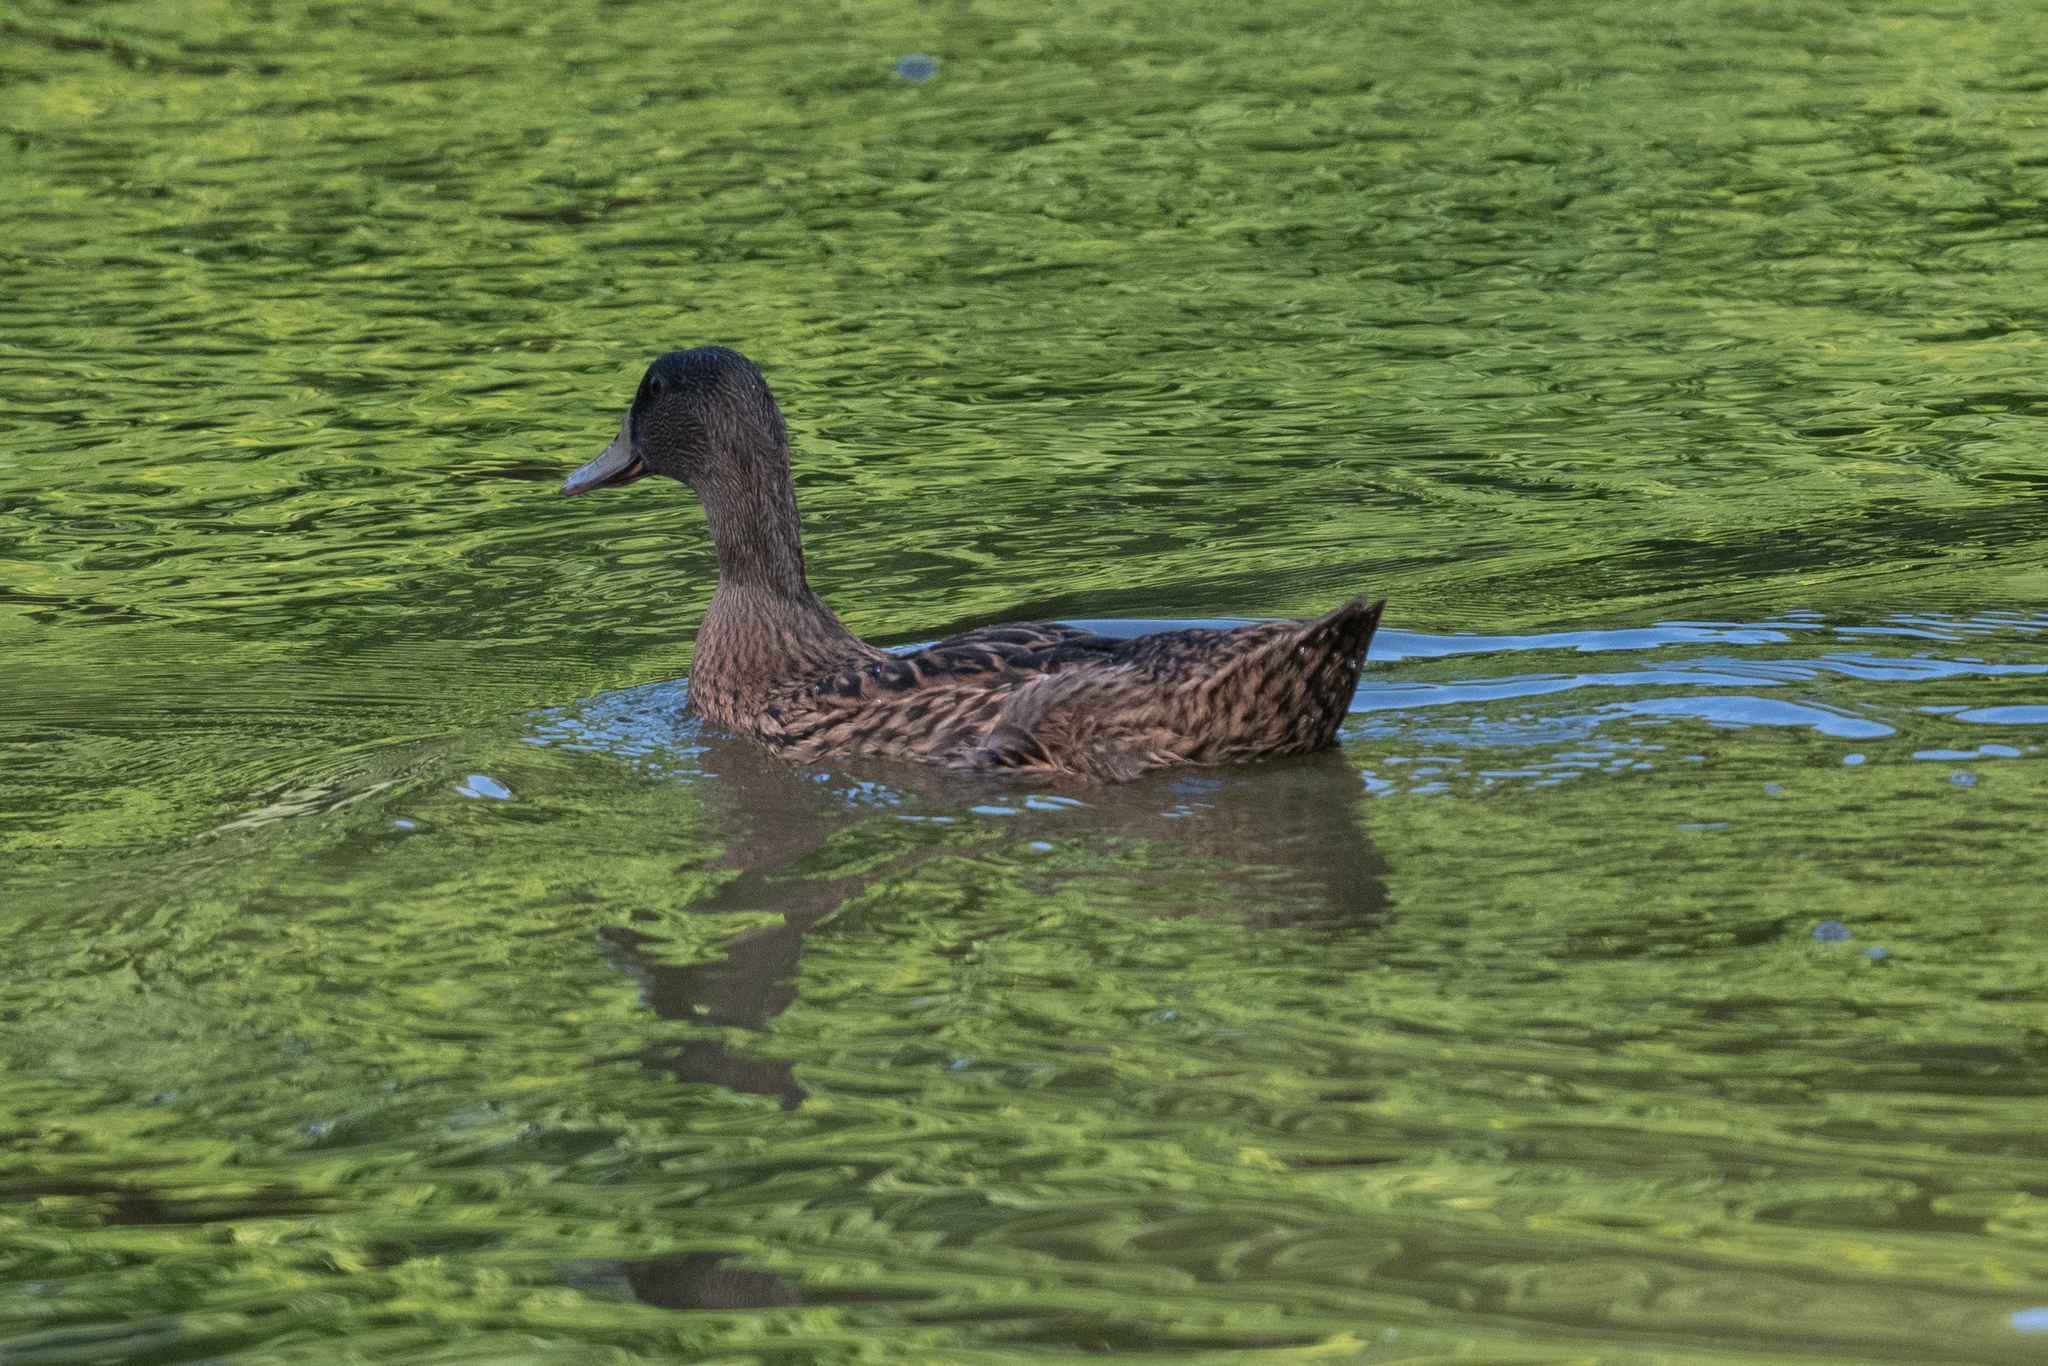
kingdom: Animalia
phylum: Chordata
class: Aves
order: Anseriformes
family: Anatidae
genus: Anas
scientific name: Anas platyrhynchos
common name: Mallard
